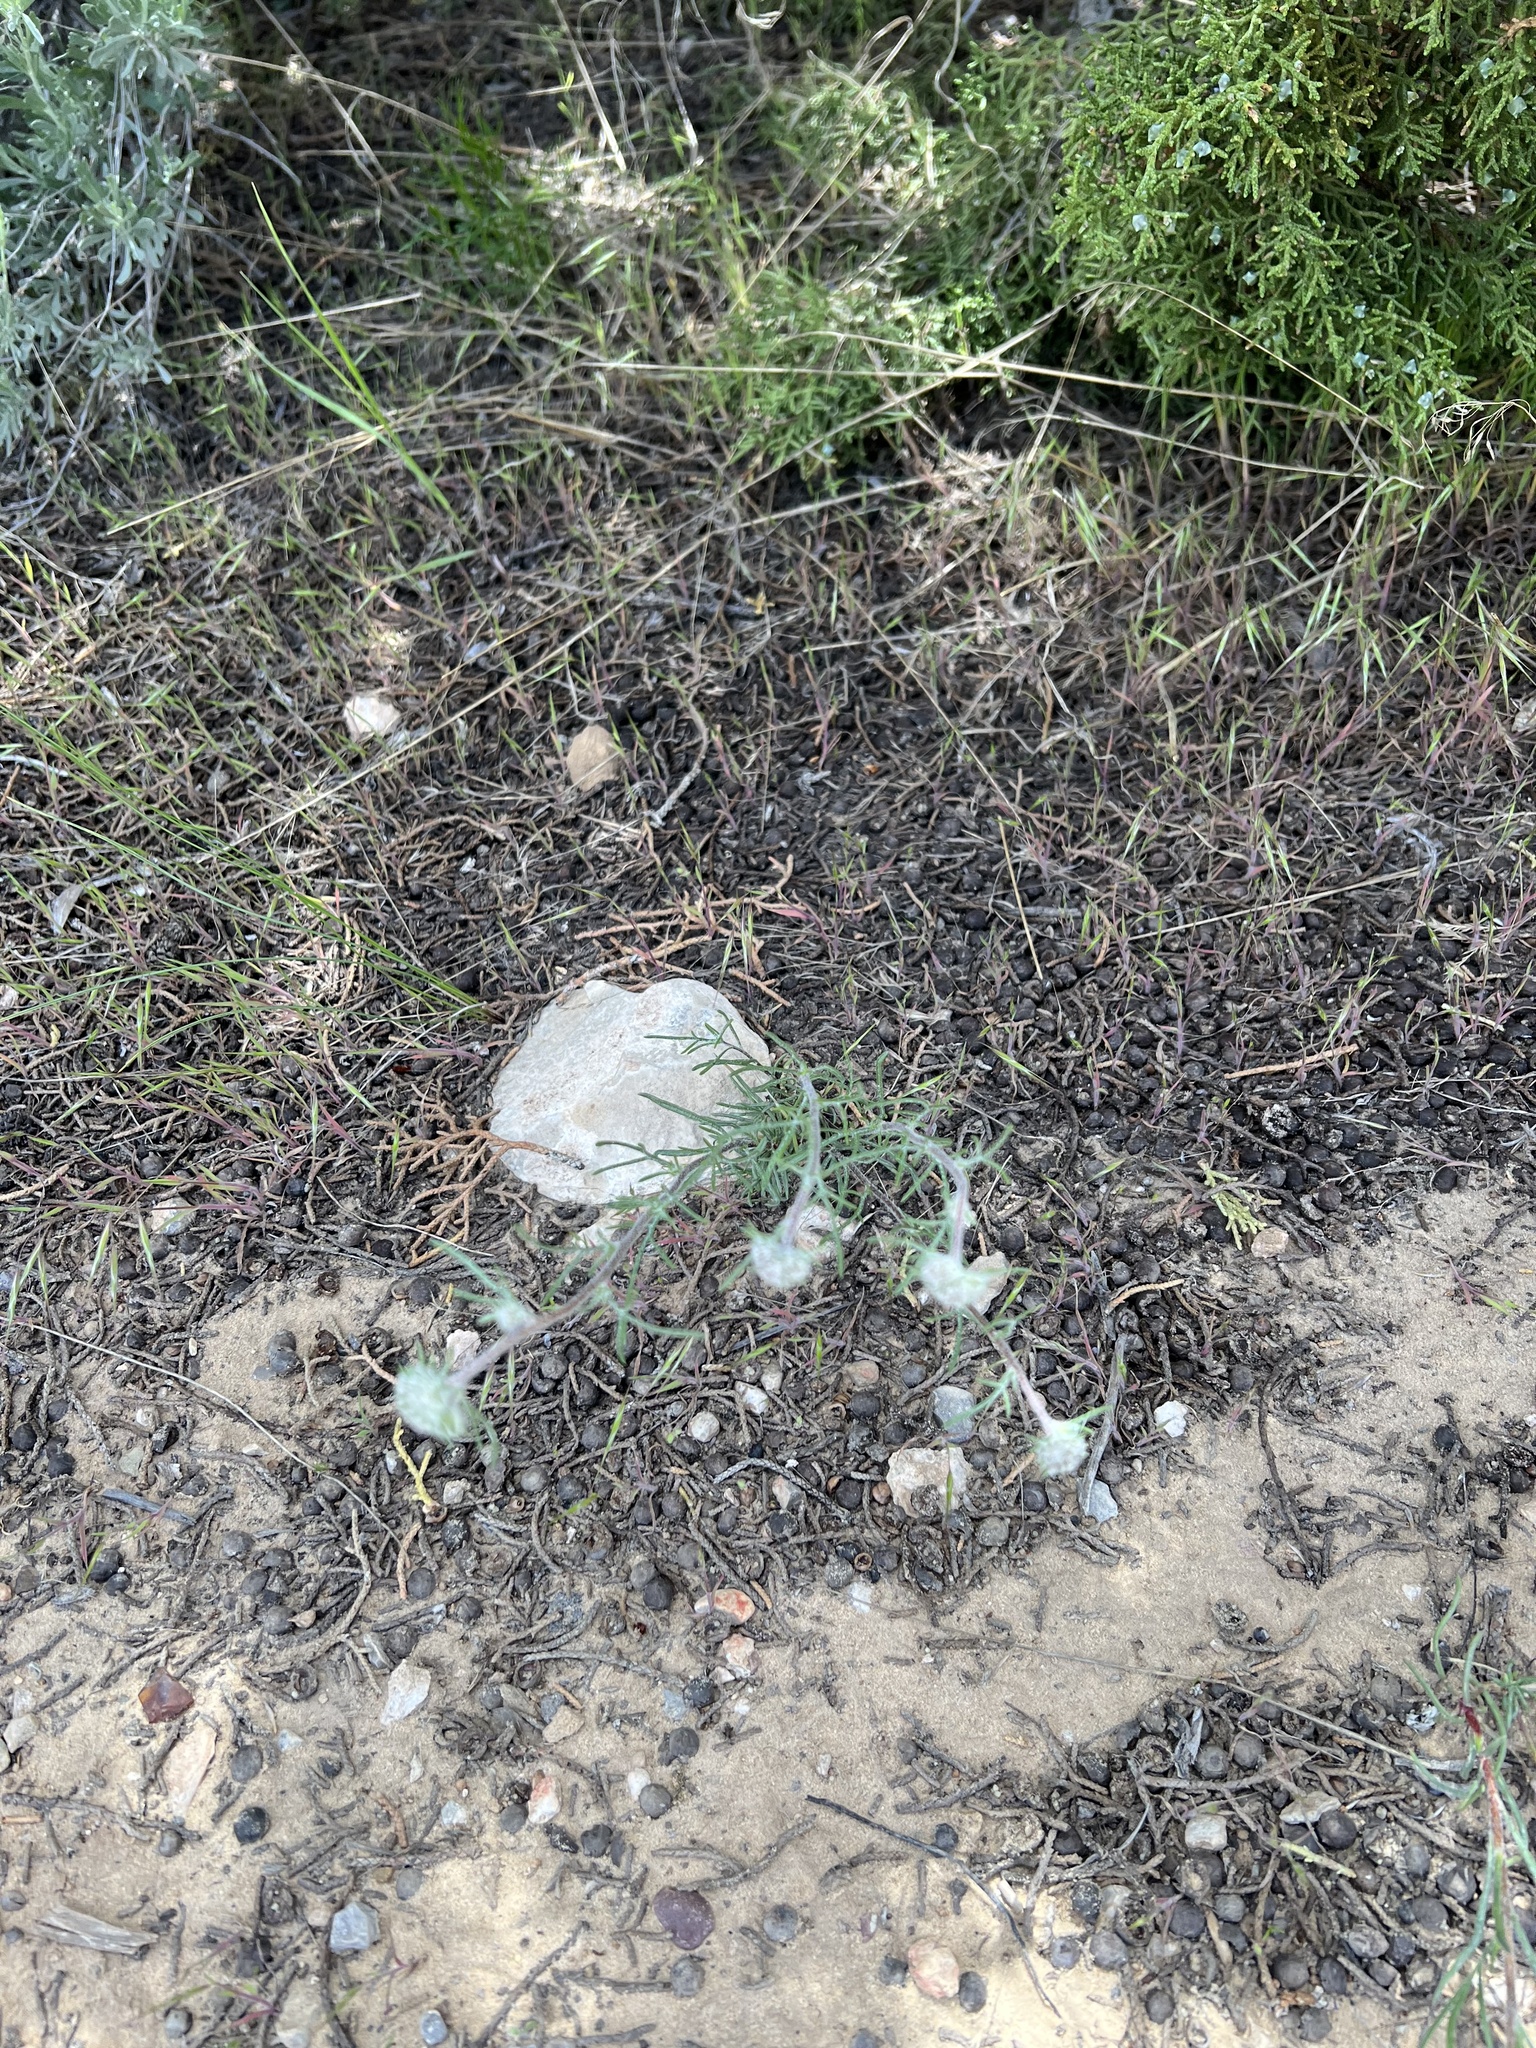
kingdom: Plantae
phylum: Tracheophyta
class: Magnoliopsida
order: Ericales
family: Polemoniaceae
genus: Ipomopsis
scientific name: Ipomopsis congesta
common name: Ball-head gilia
